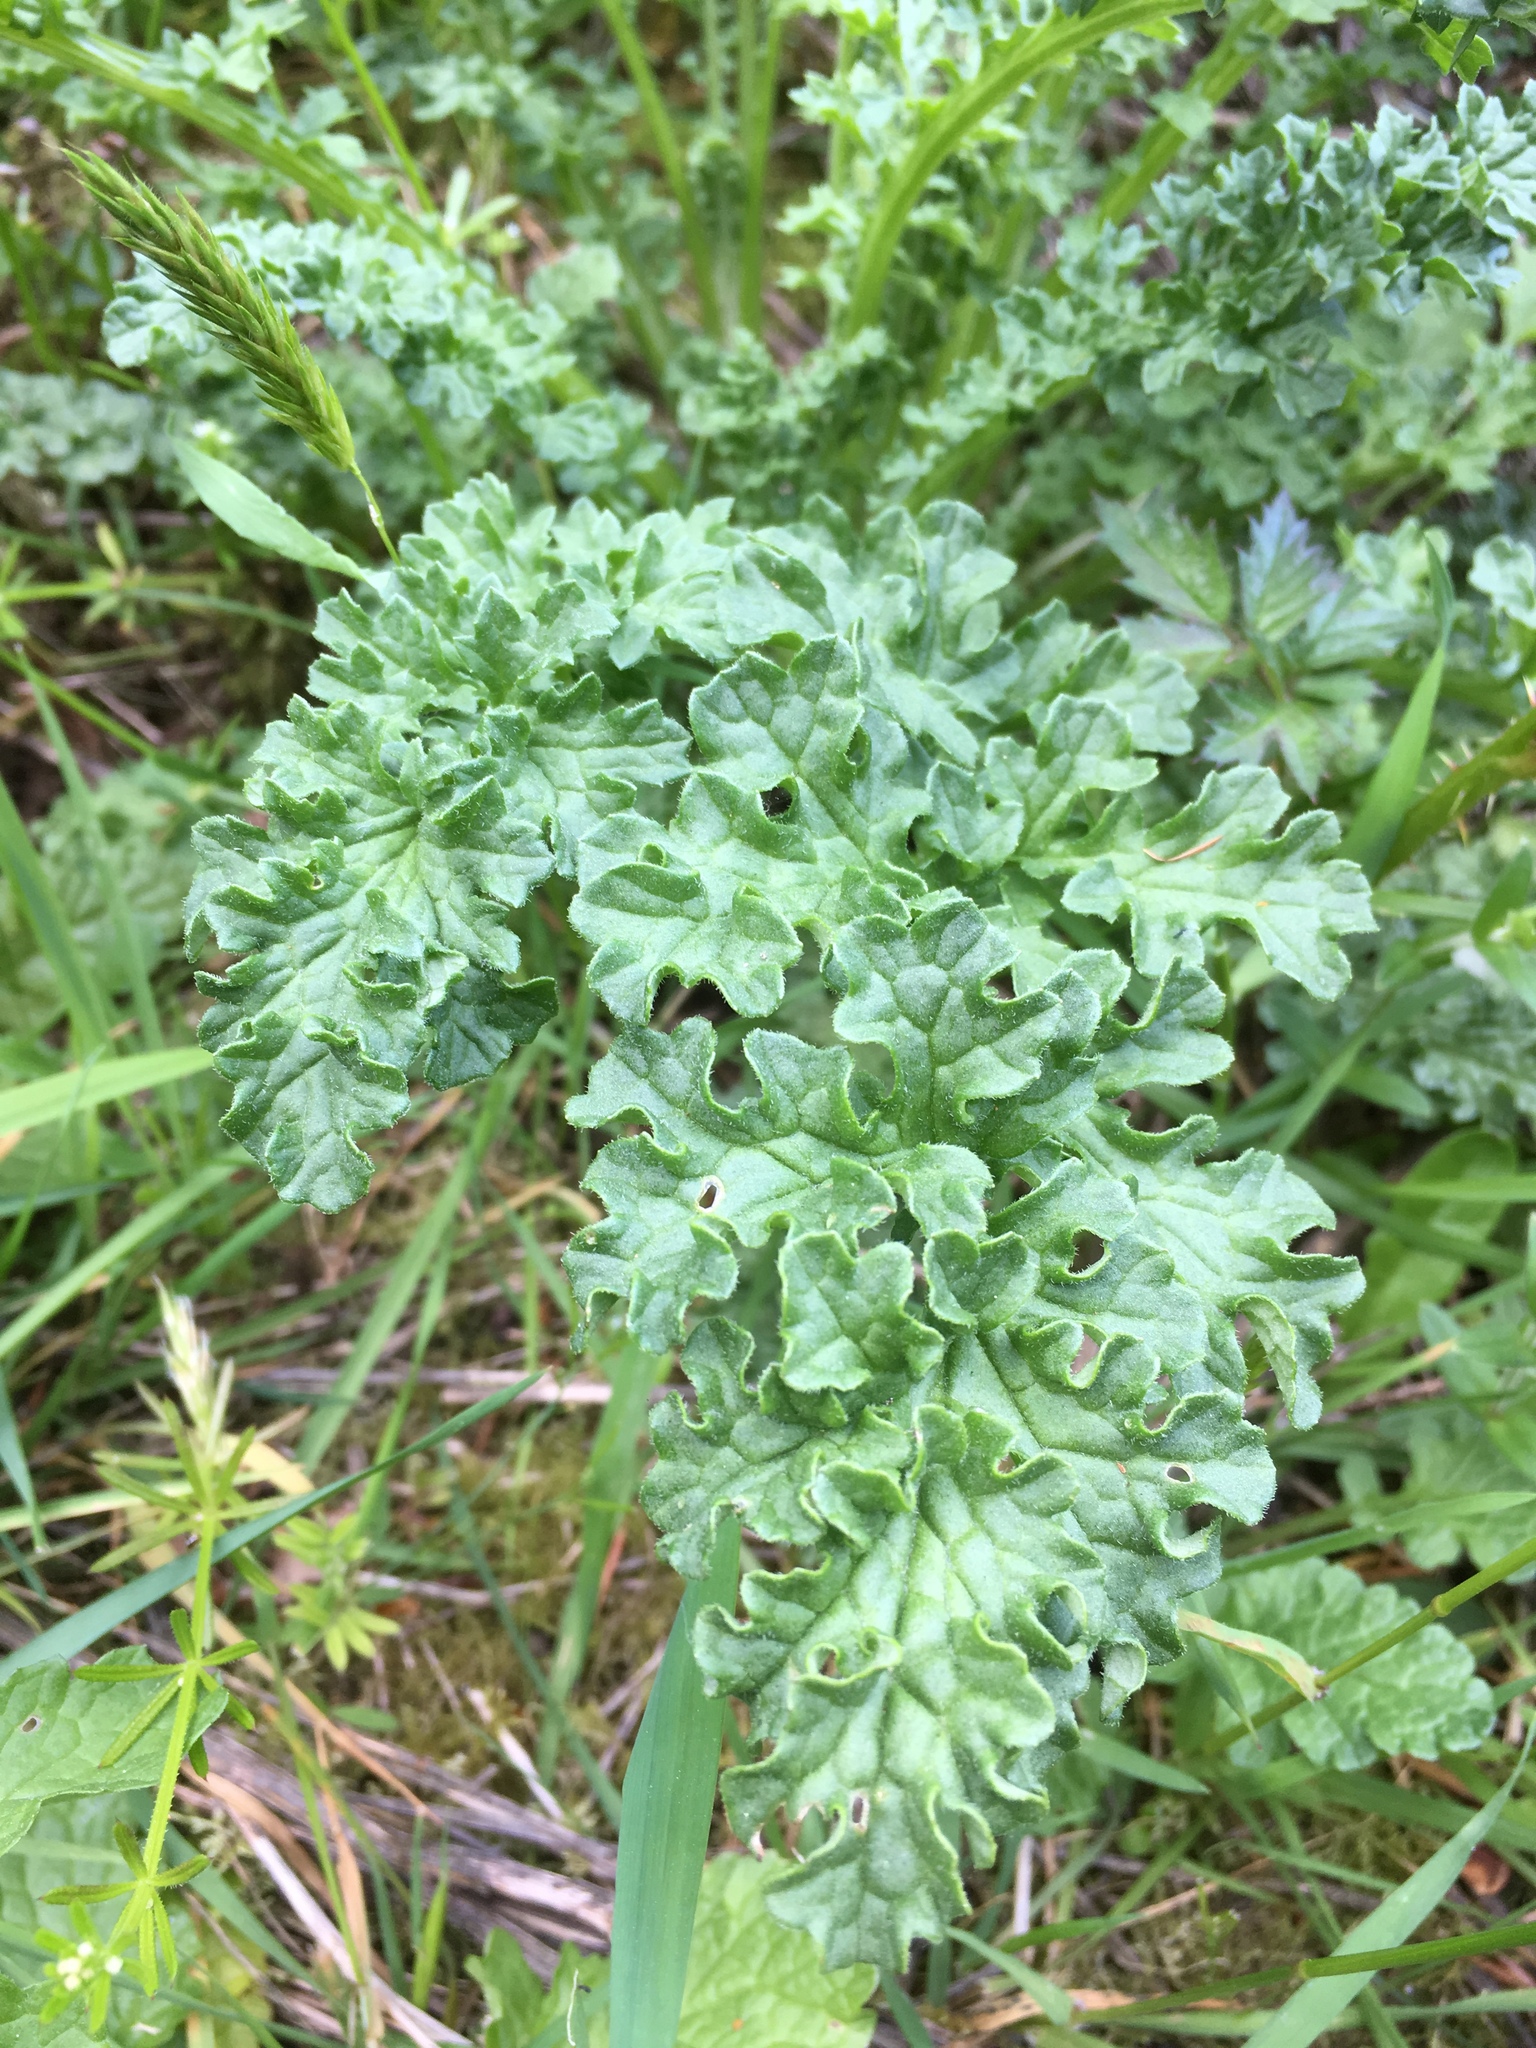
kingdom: Plantae
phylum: Tracheophyta
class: Magnoliopsida
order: Asterales
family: Asteraceae
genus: Jacobaea
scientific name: Jacobaea vulgaris
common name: Stinking willie
